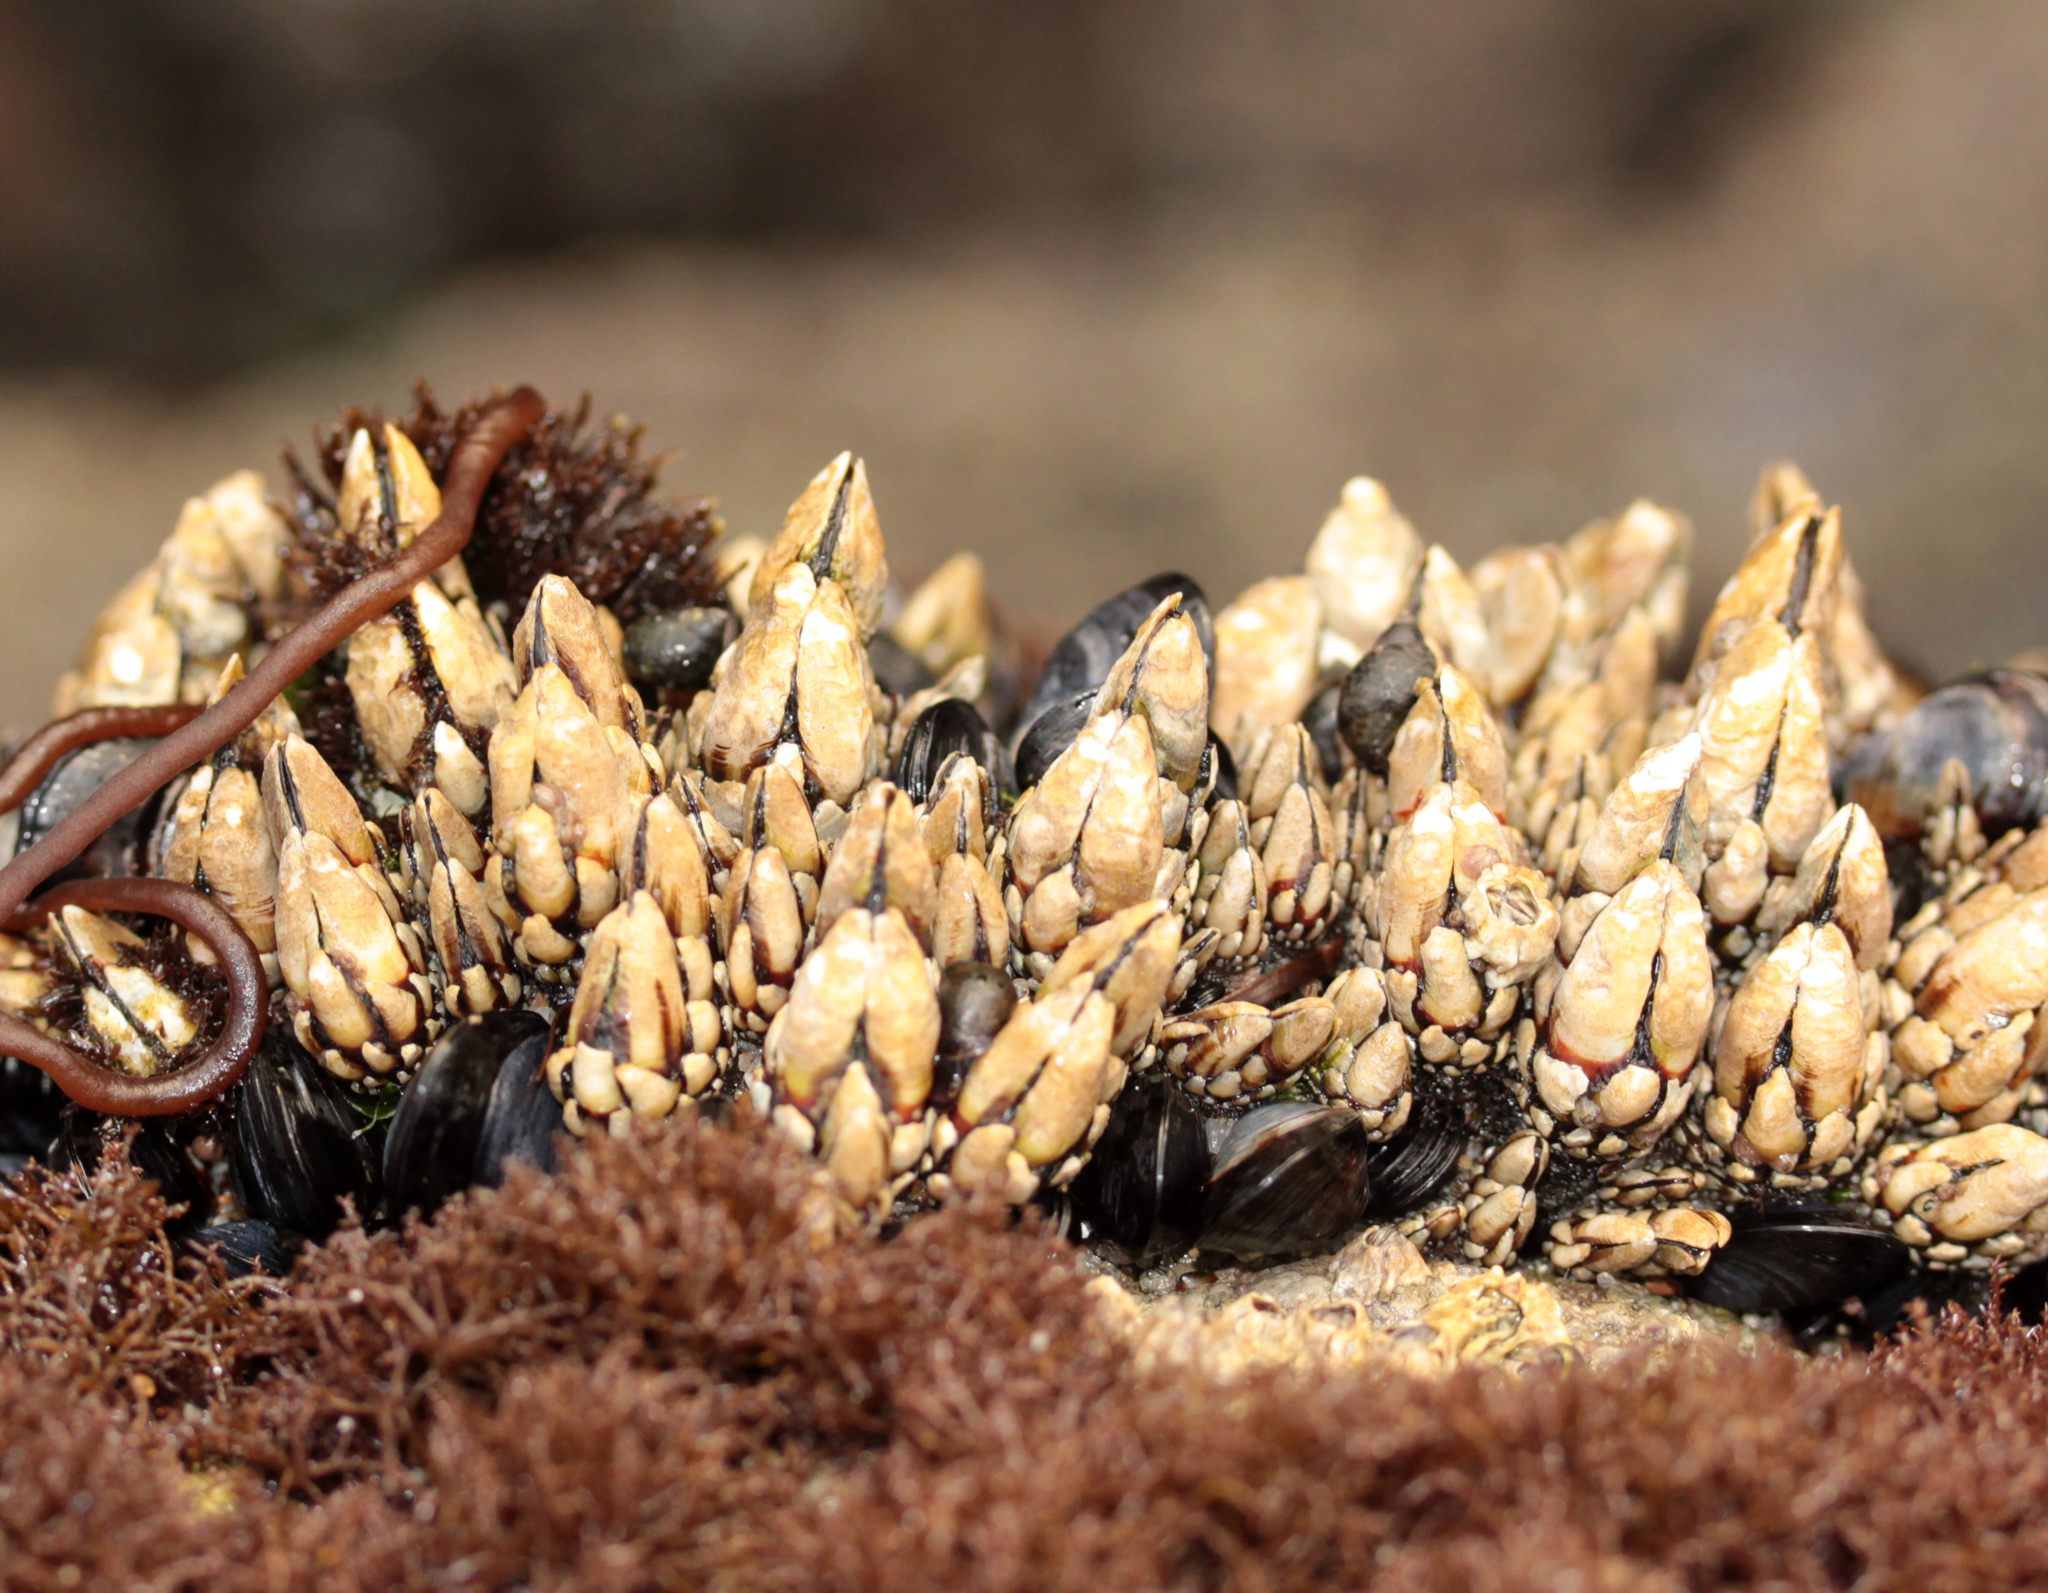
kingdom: Animalia
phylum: Arthropoda
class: Maxillopoda
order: Pedunculata
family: Pollicipedidae
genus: Pollicipes
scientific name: Pollicipes polymerus
